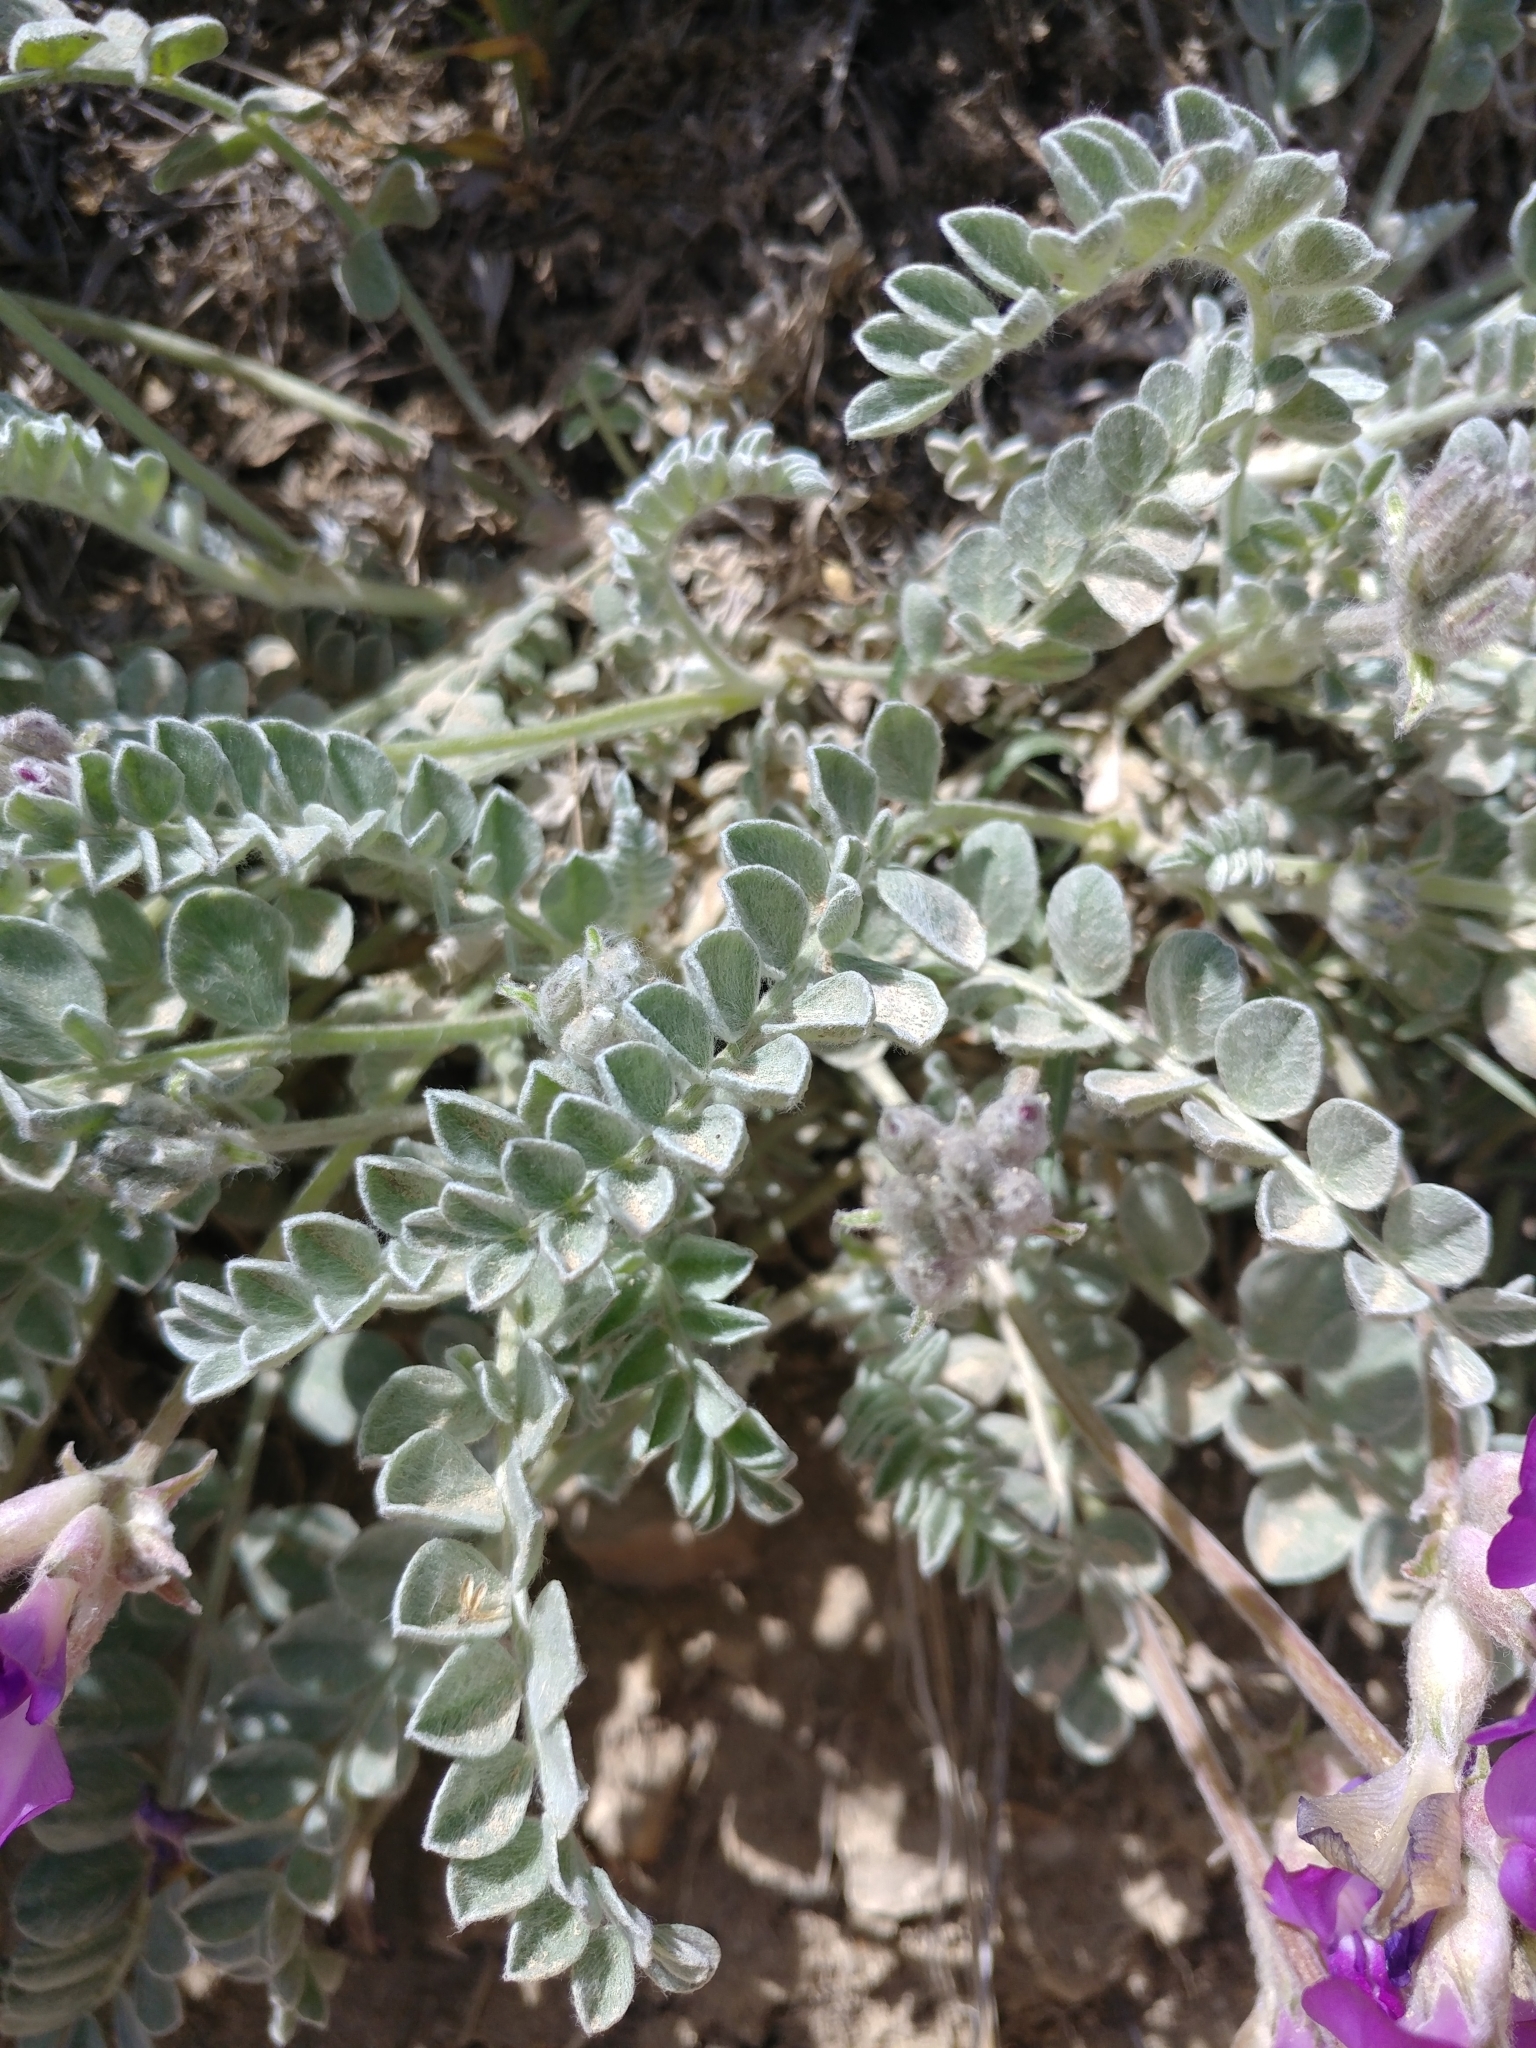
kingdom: Plantae
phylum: Tracheophyta
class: Magnoliopsida
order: Fabales
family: Fabaceae
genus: Astragalus
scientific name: Astragalus utahensis
